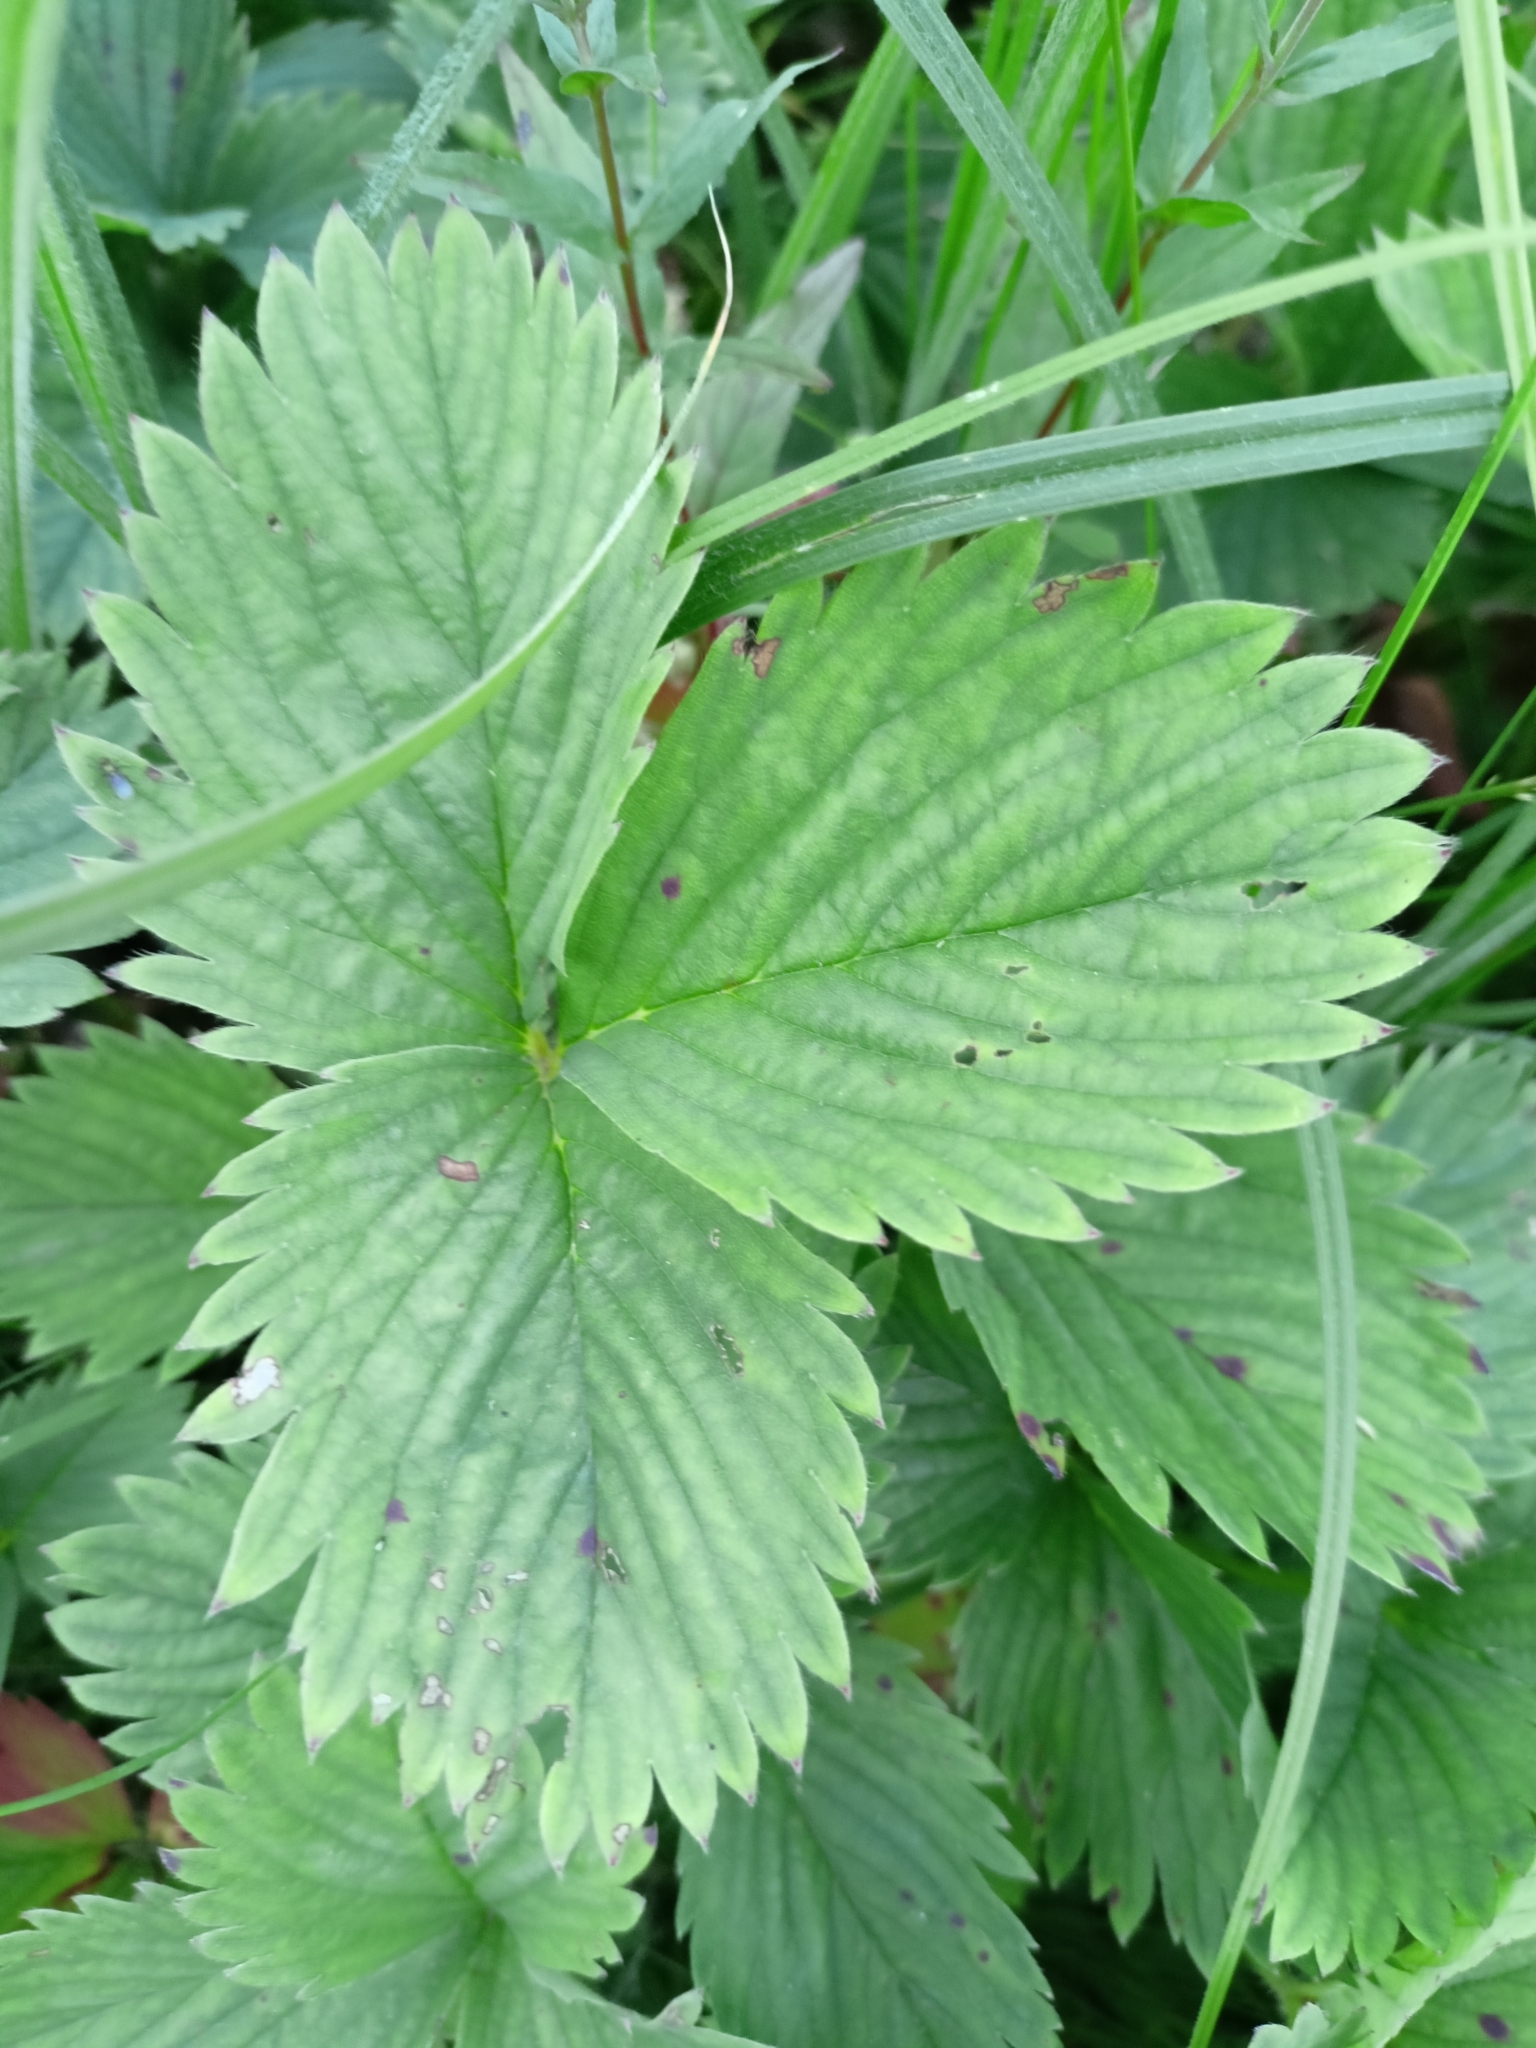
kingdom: Plantae
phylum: Tracheophyta
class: Magnoliopsida
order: Rosales
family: Rosaceae
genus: Fragaria
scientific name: Fragaria ananassa
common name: Garden strawberry
